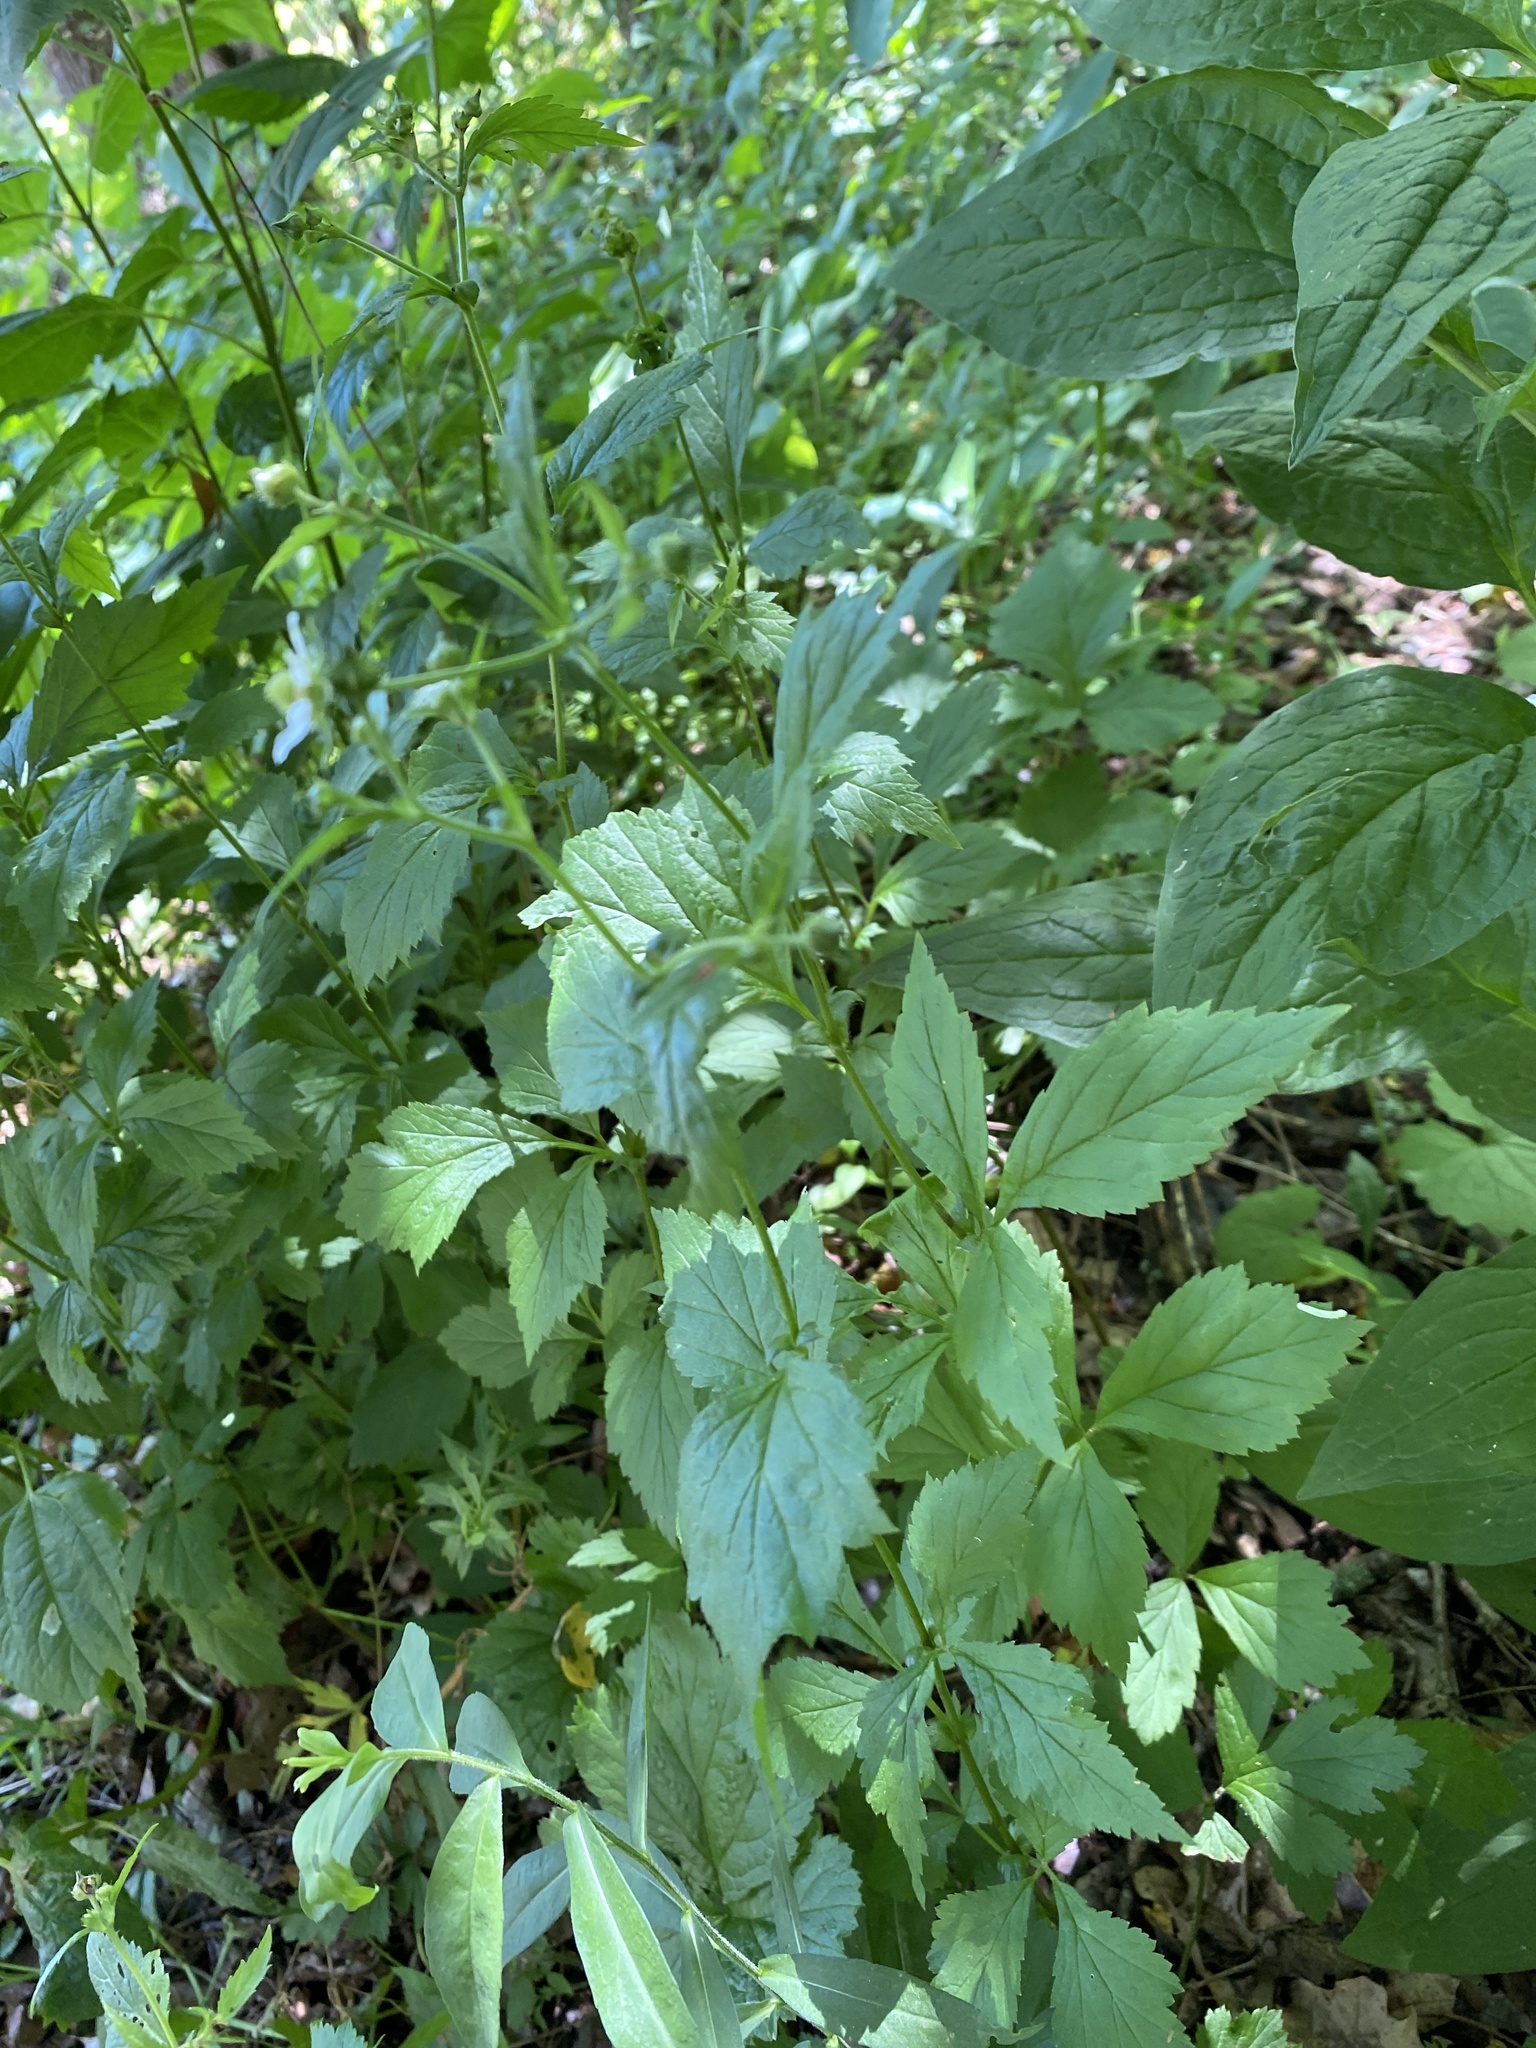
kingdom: Plantae
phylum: Tracheophyta
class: Magnoliopsida
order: Rosales
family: Rosaceae
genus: Geum
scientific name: Geum canadense
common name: White avens
